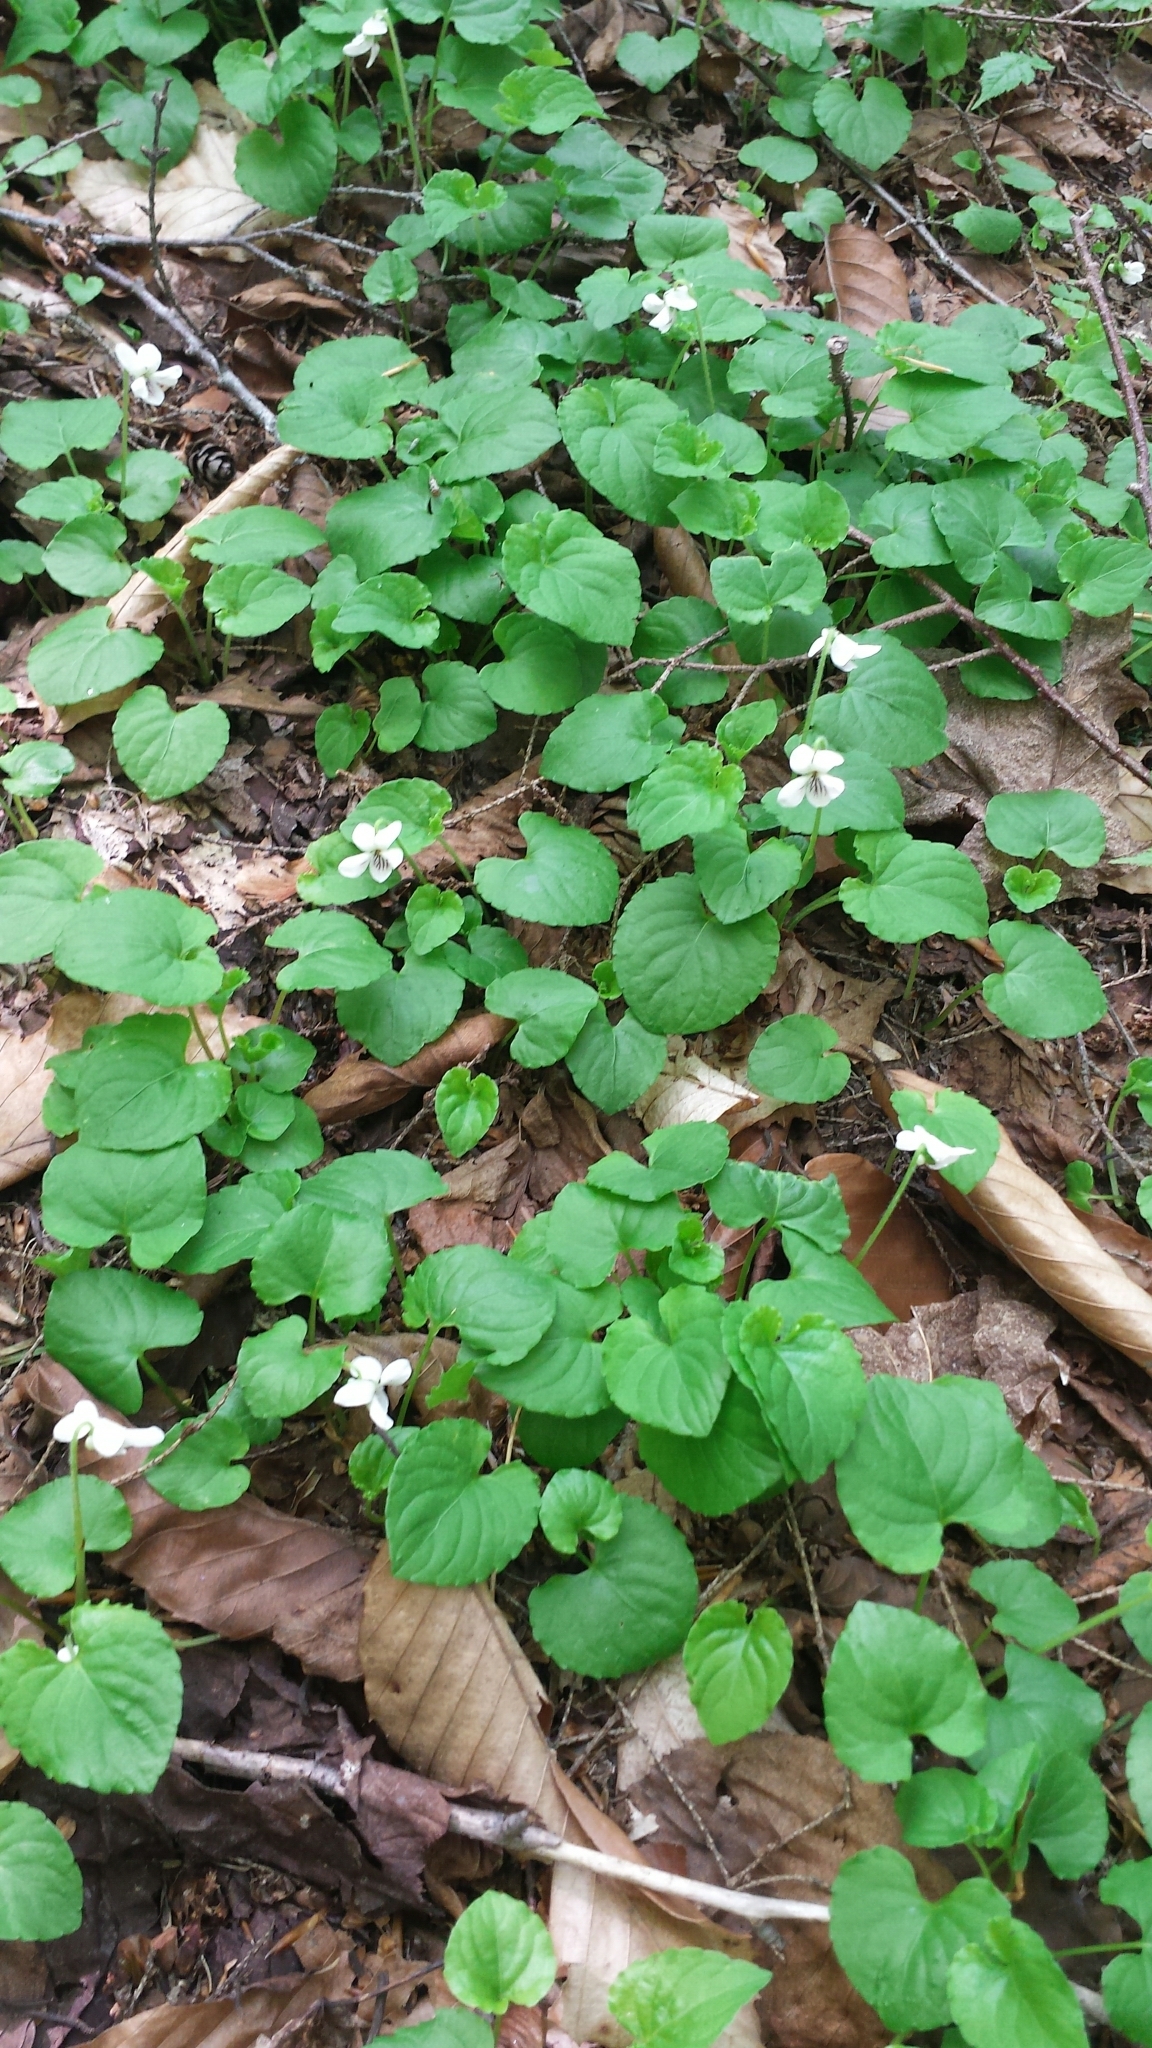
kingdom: Plantae
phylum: Tracheophyta
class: Magnoliopsida
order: Malpighiales
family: Violaceae
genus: Viola
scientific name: Viola blanda
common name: Sweet white violet
